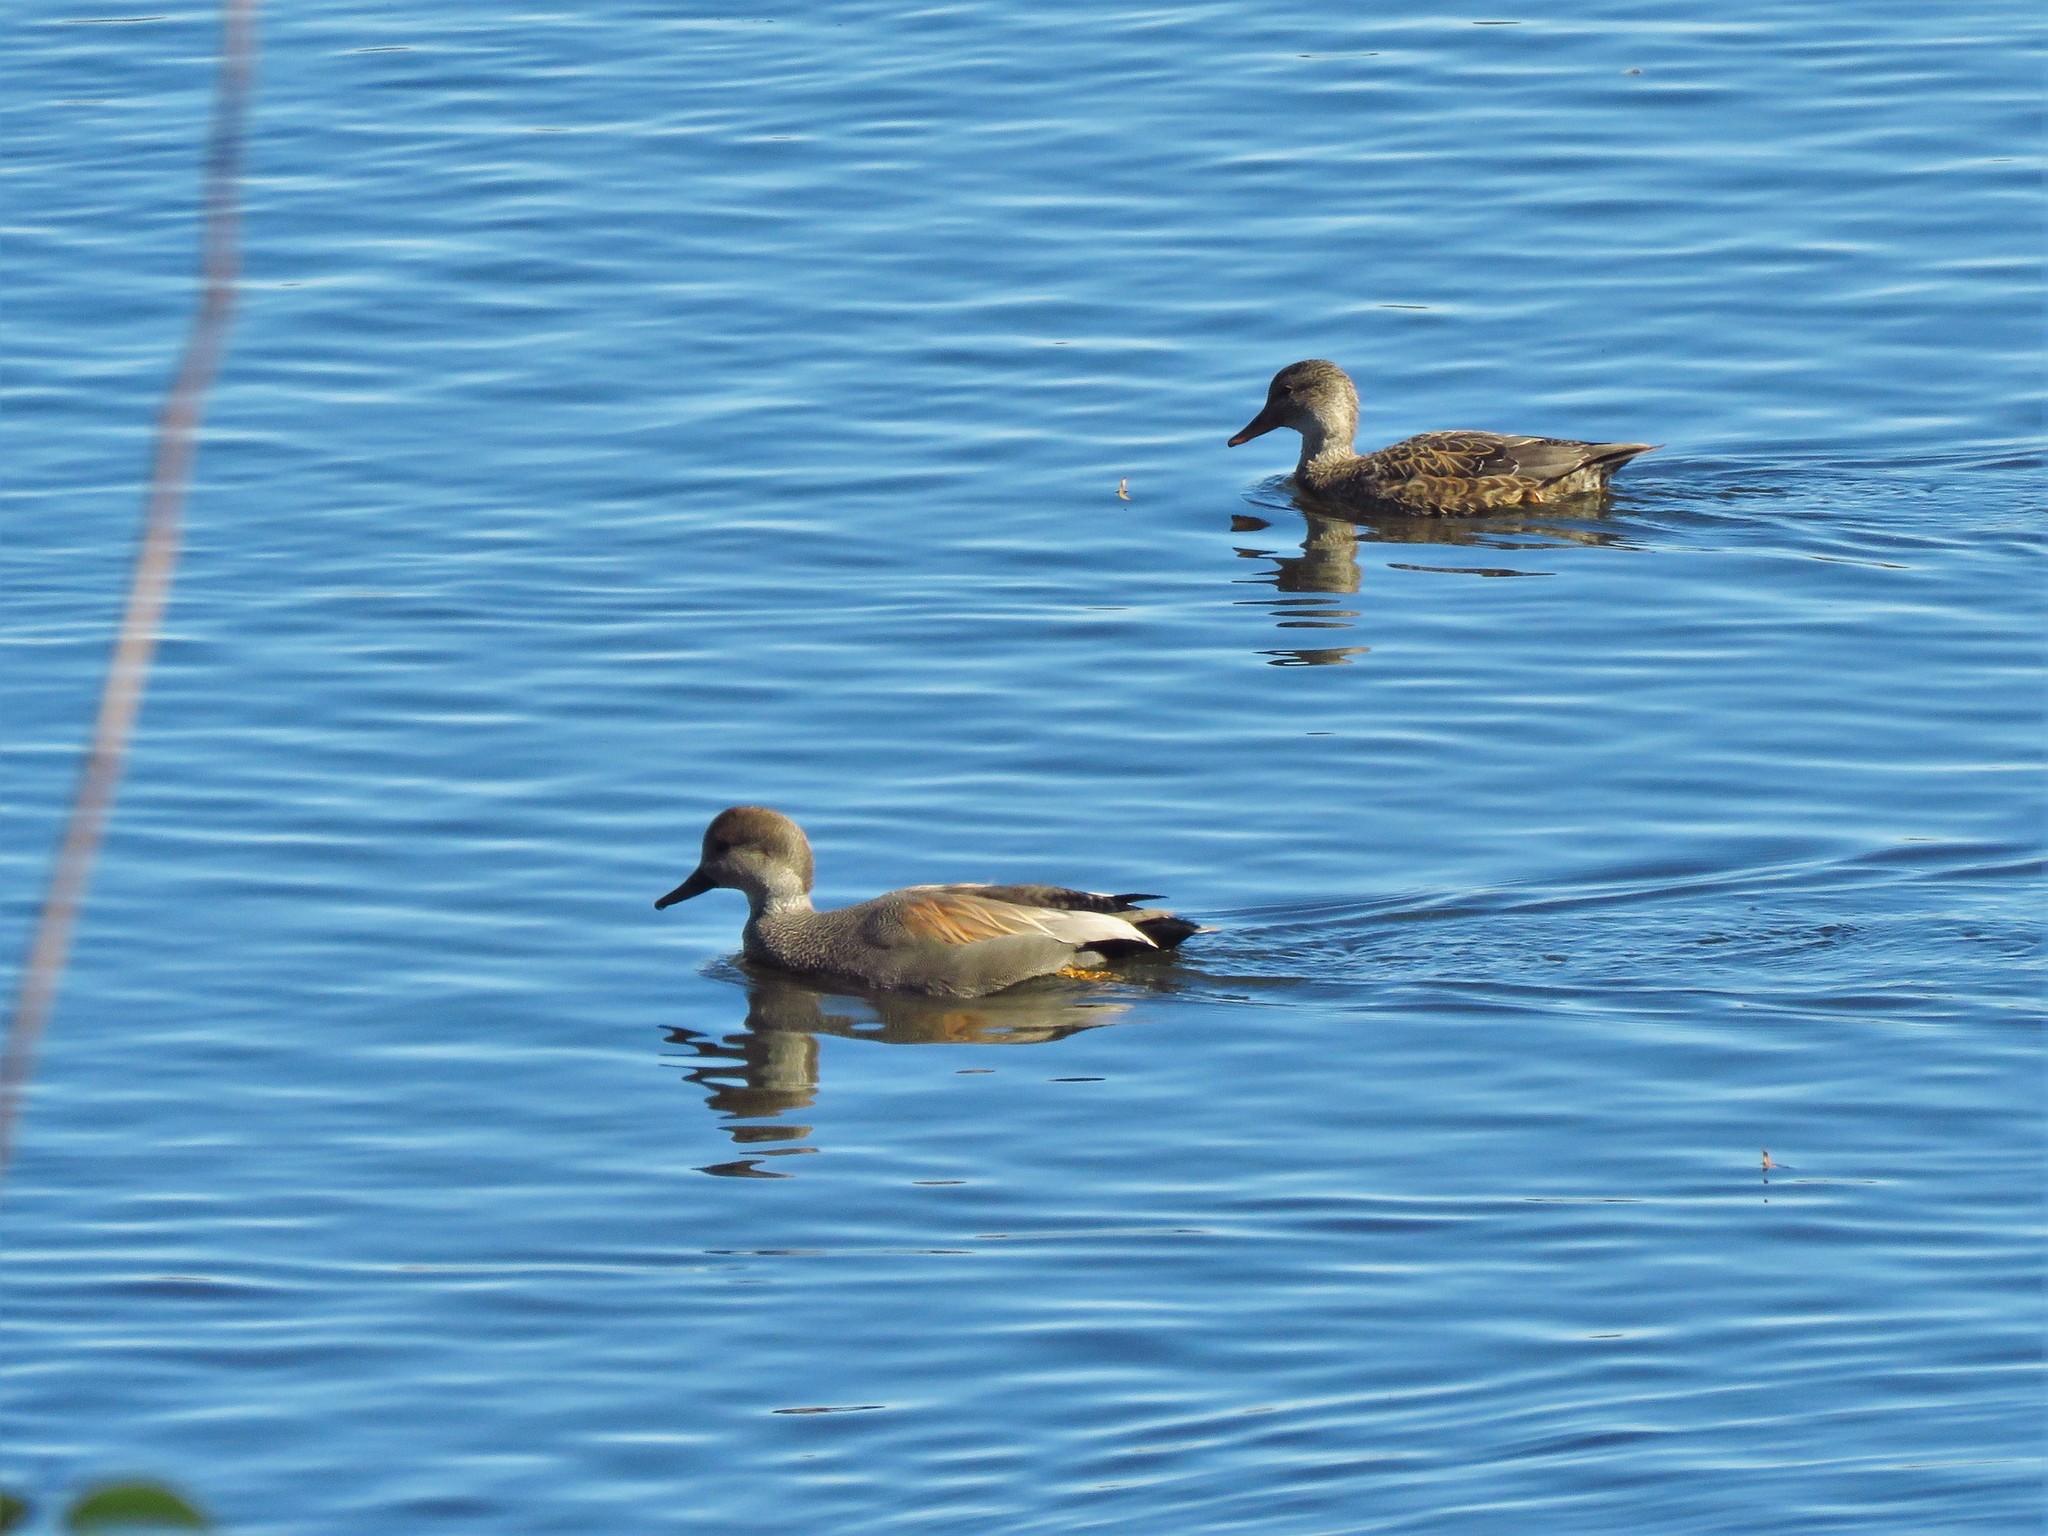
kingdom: Animalia
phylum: Chordata
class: Aves
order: Anseriformes
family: Anatidae
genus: Mareca
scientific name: Mareca strepera
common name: Gadwall
